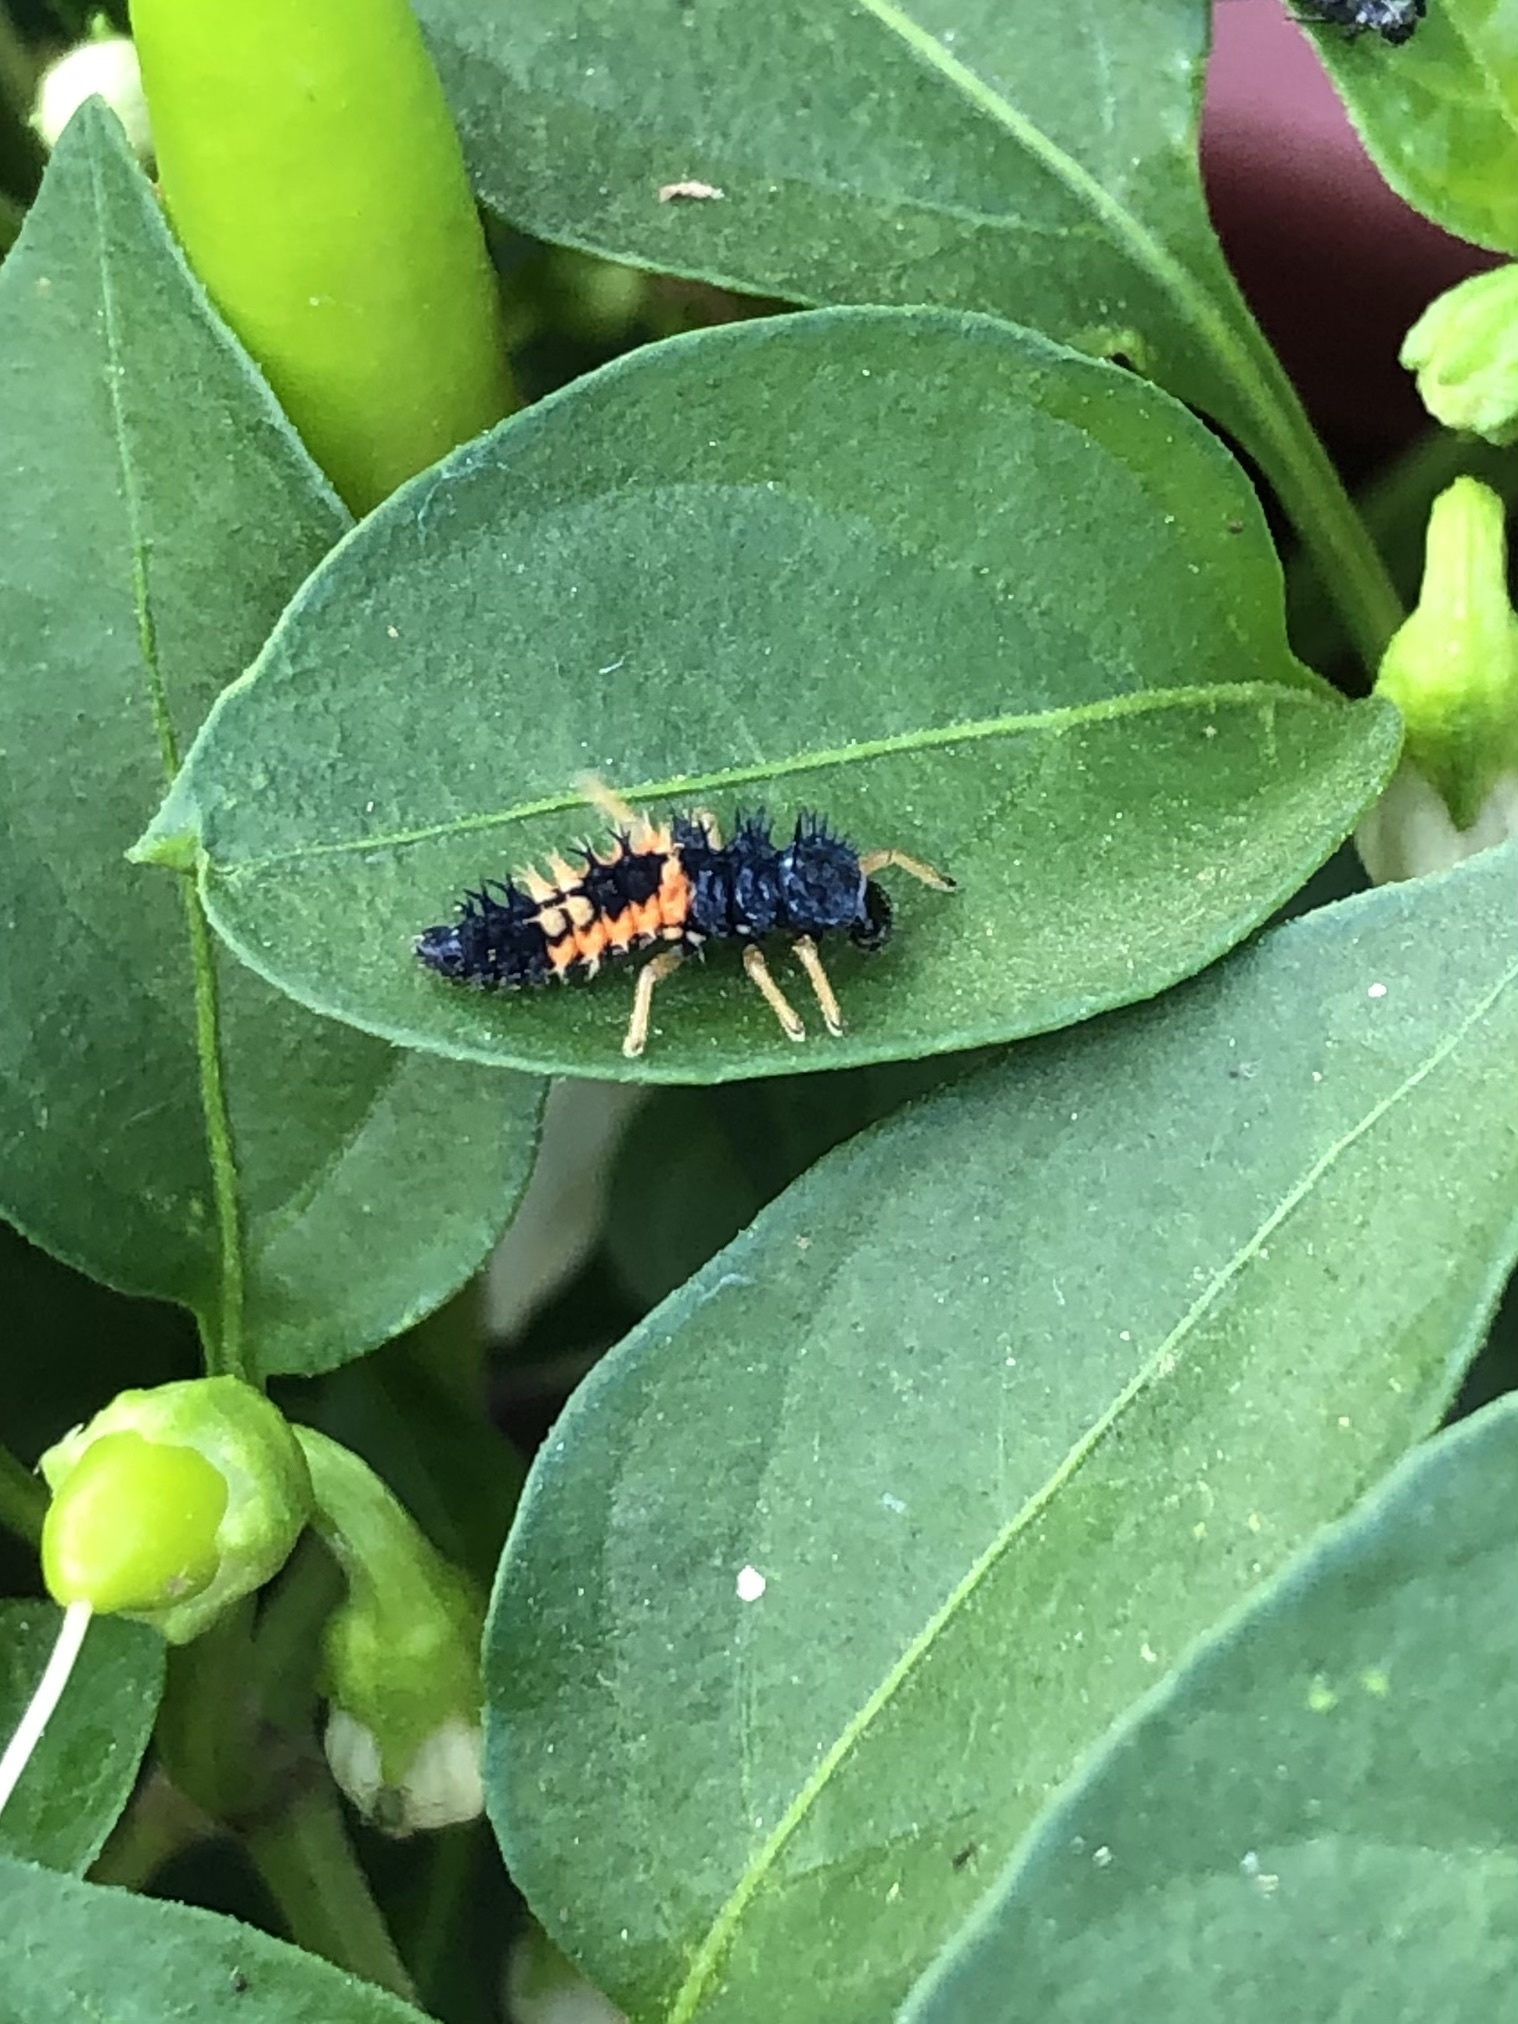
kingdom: Animalia
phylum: Arthropoda
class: Insecta
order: Coleoptera
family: Coccinellidae
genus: Harmonia
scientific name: Harmonia axyridis
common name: Harlequin ladybird
